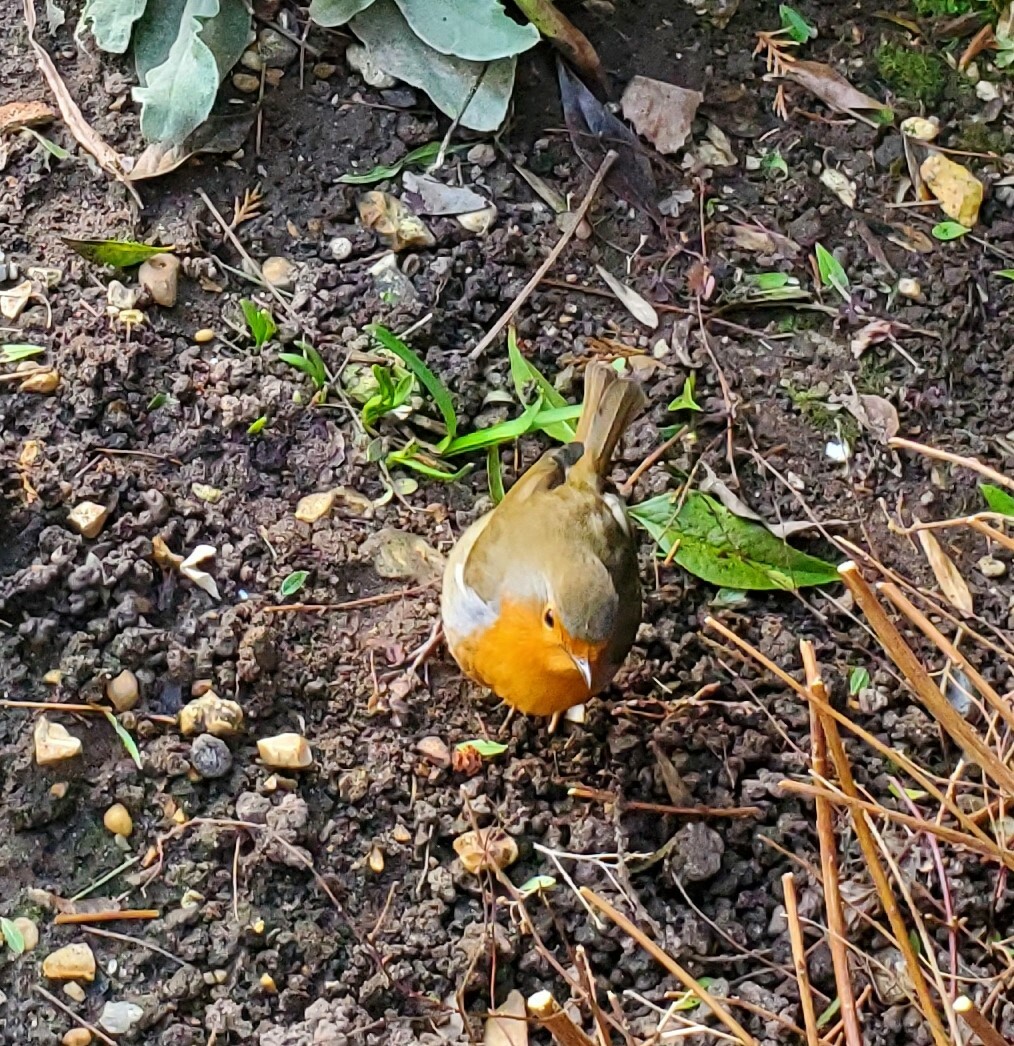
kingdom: Animalia
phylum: Chordata
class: Aves
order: Passeriformes
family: Muscicapidae
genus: Erithacus
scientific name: Erithacus rubecula
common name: European robin
